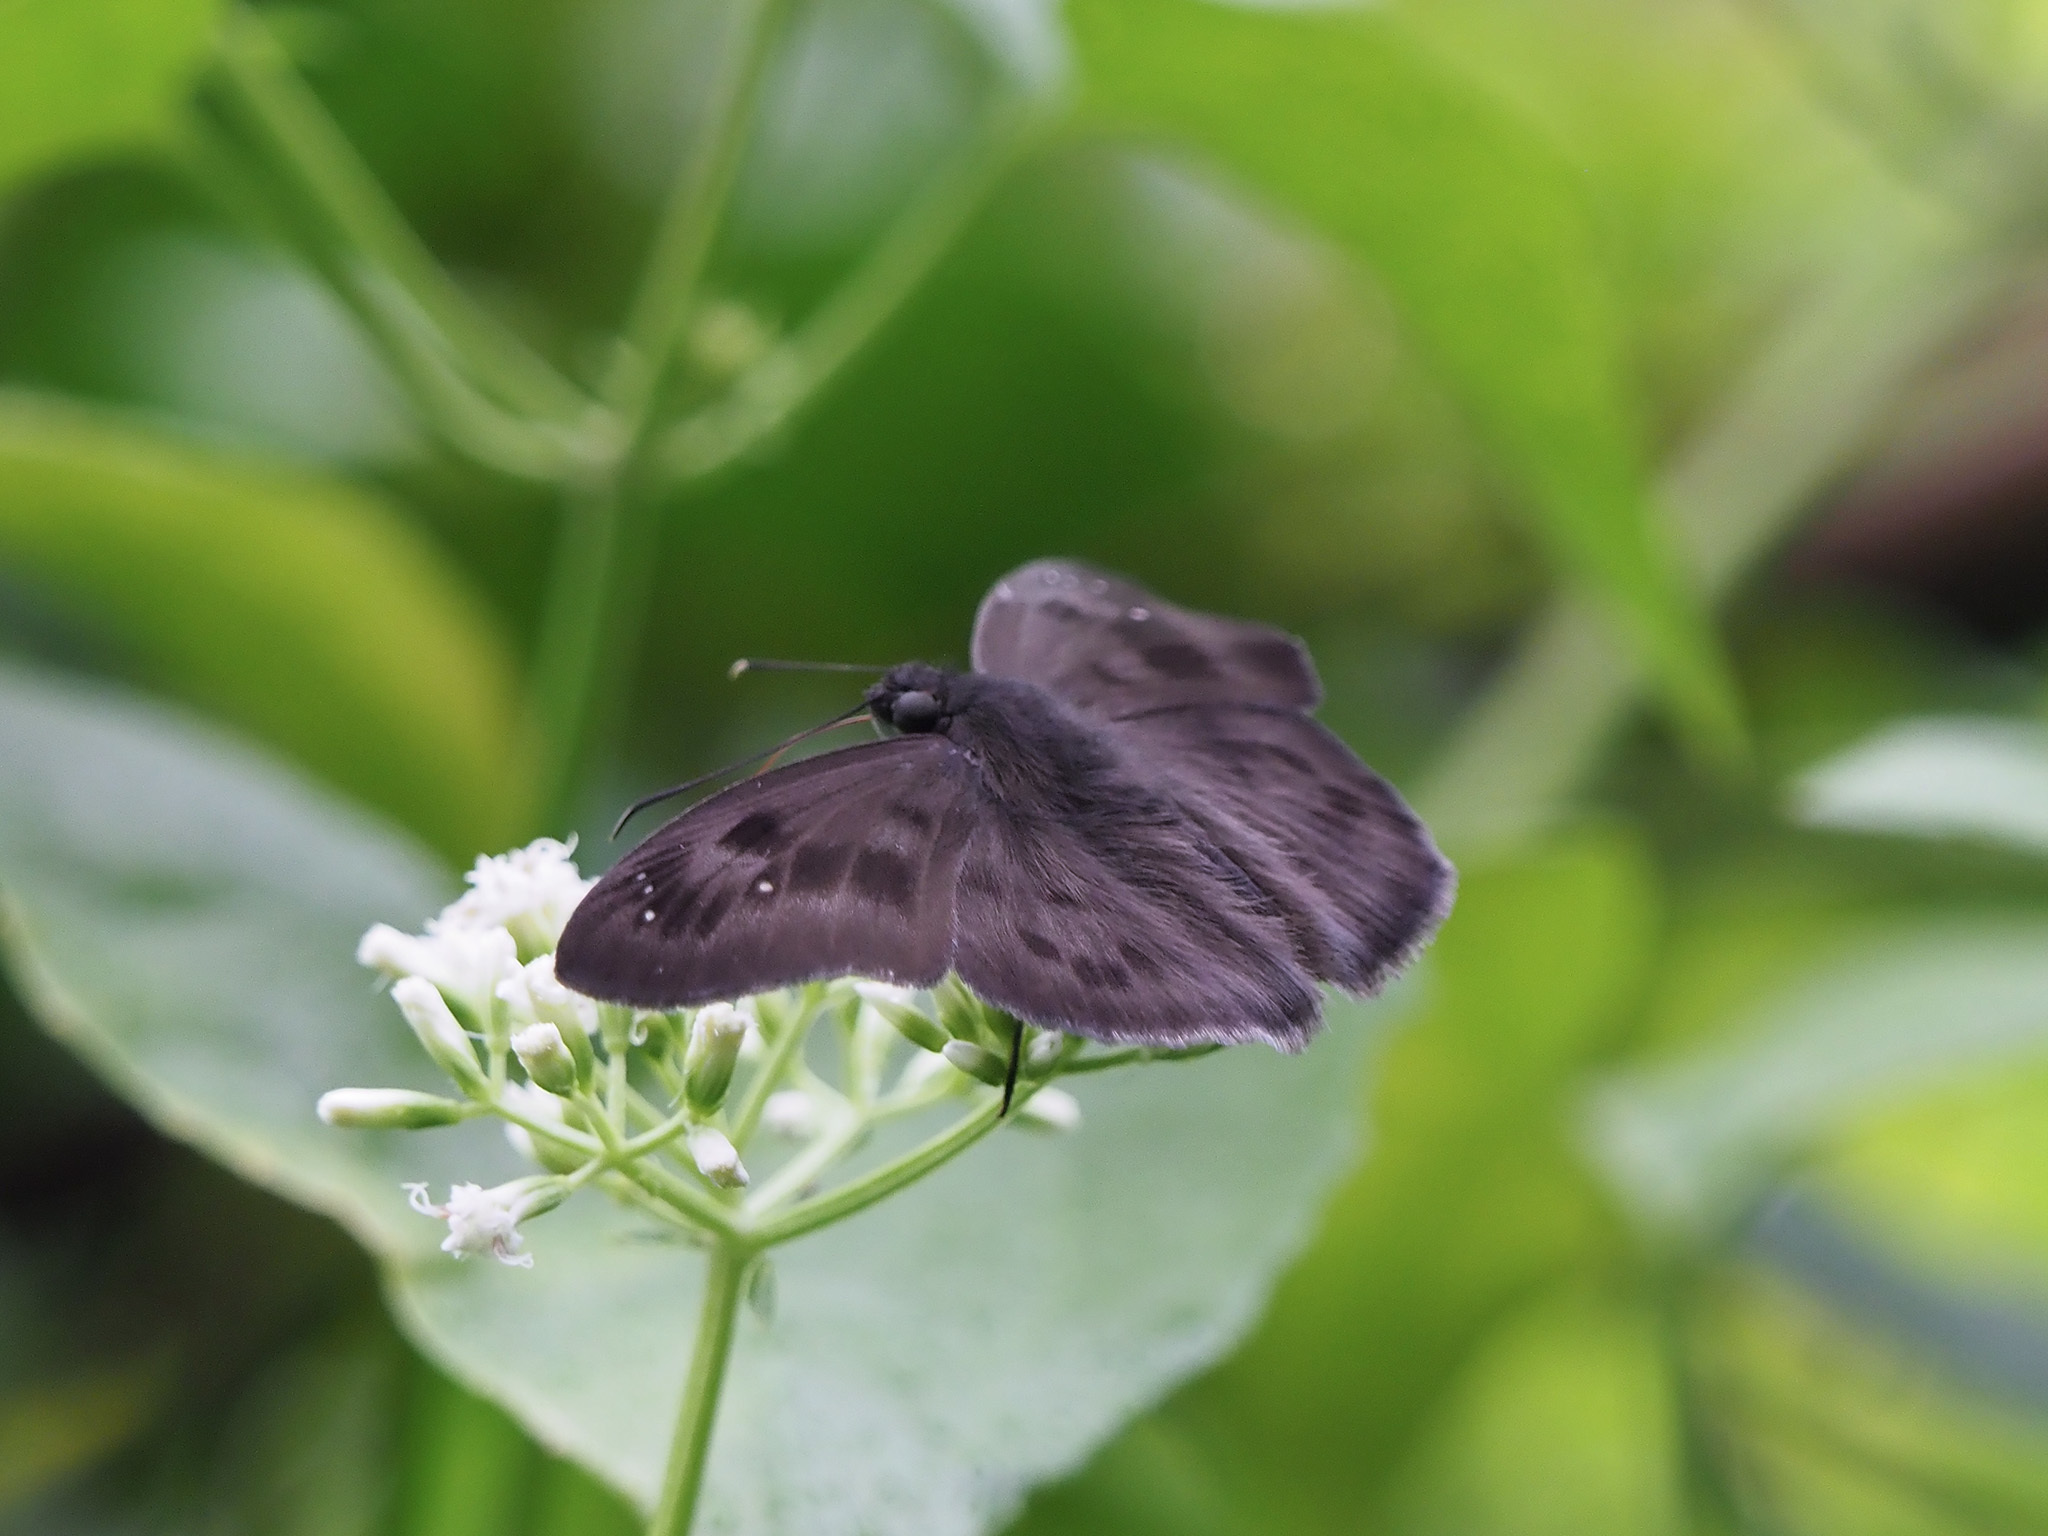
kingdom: Animalia
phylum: Arthropoda
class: Insecta
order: Lepidoptera
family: Hesperiidae
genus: Tagiades
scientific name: Tagiades japetus
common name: Pied flat
